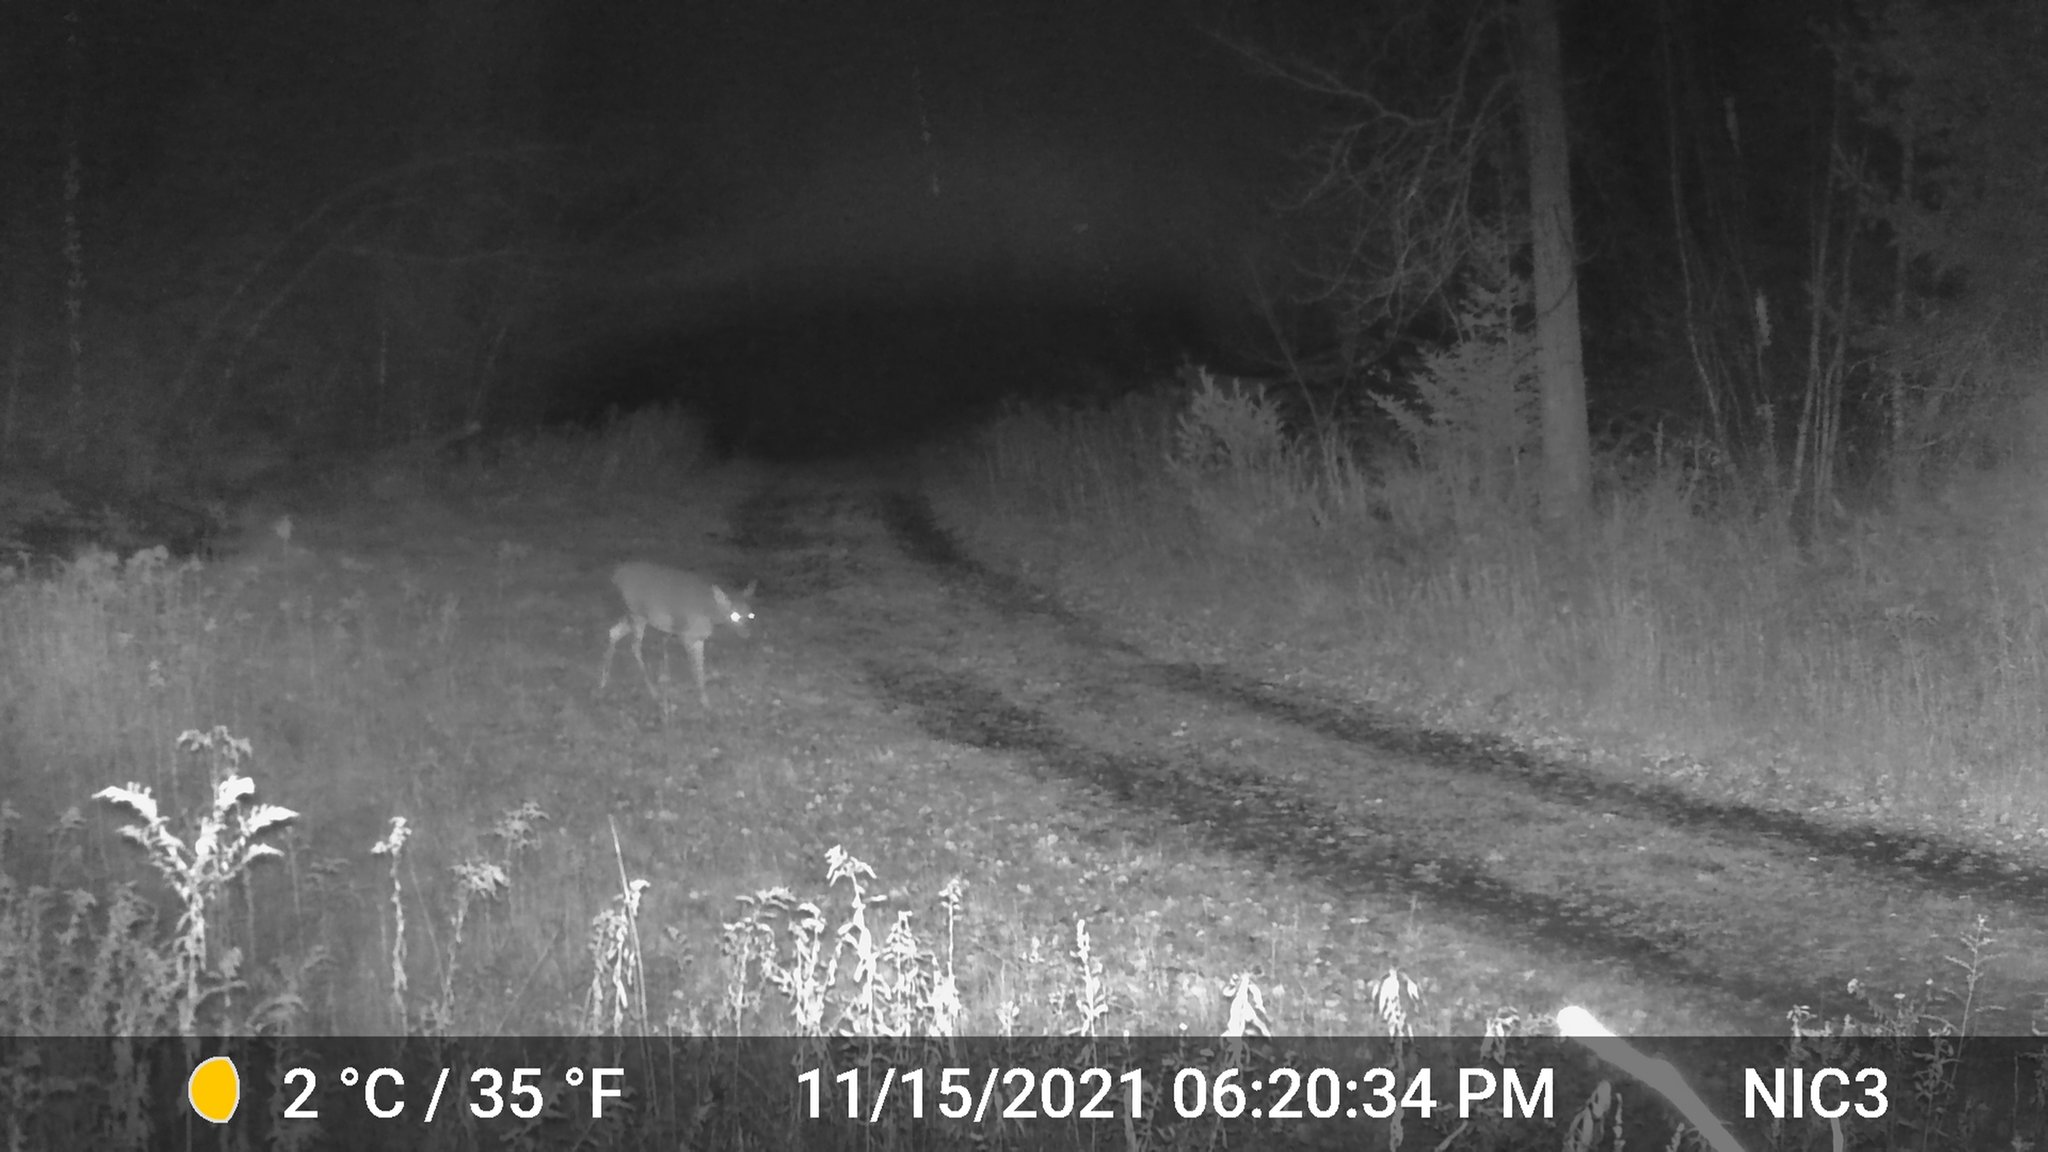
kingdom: Animalia
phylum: Chordata
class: Mammalia
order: Artiodactyla
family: Cervidae
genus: Odocoileus
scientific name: Odocoileus virginianus
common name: White-tailed deer
